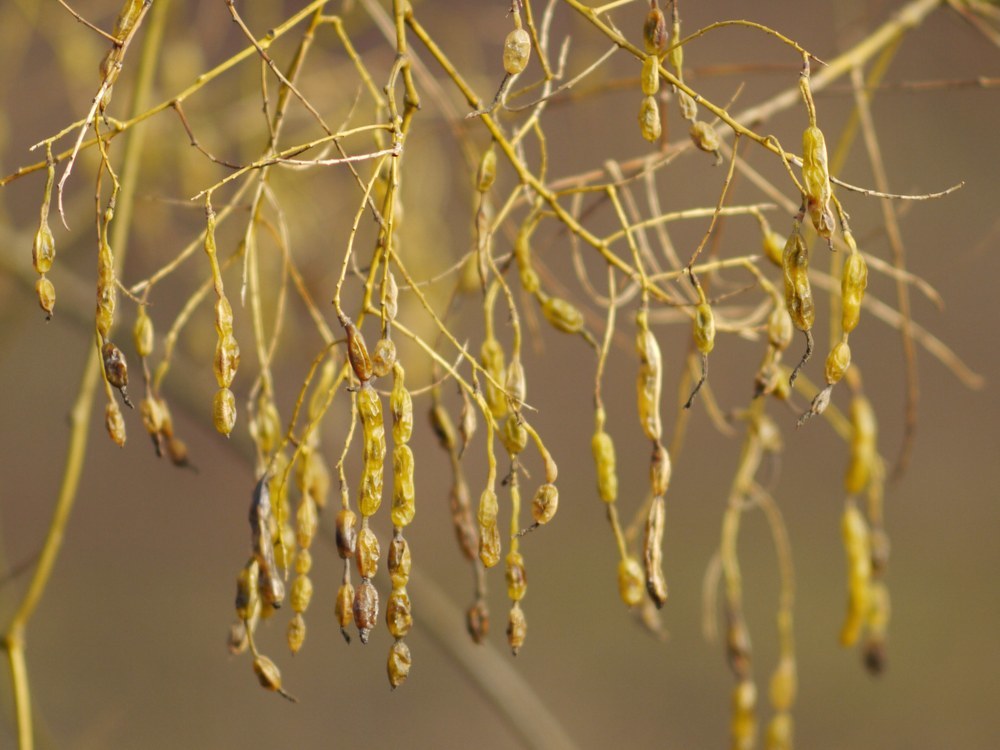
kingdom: Plantae
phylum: Tracheophyta
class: Magnoliopsida
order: Fabales
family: Fabaceae
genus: Styphnolobium
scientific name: Styphnolobium japonicum
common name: Chinese scholartree
